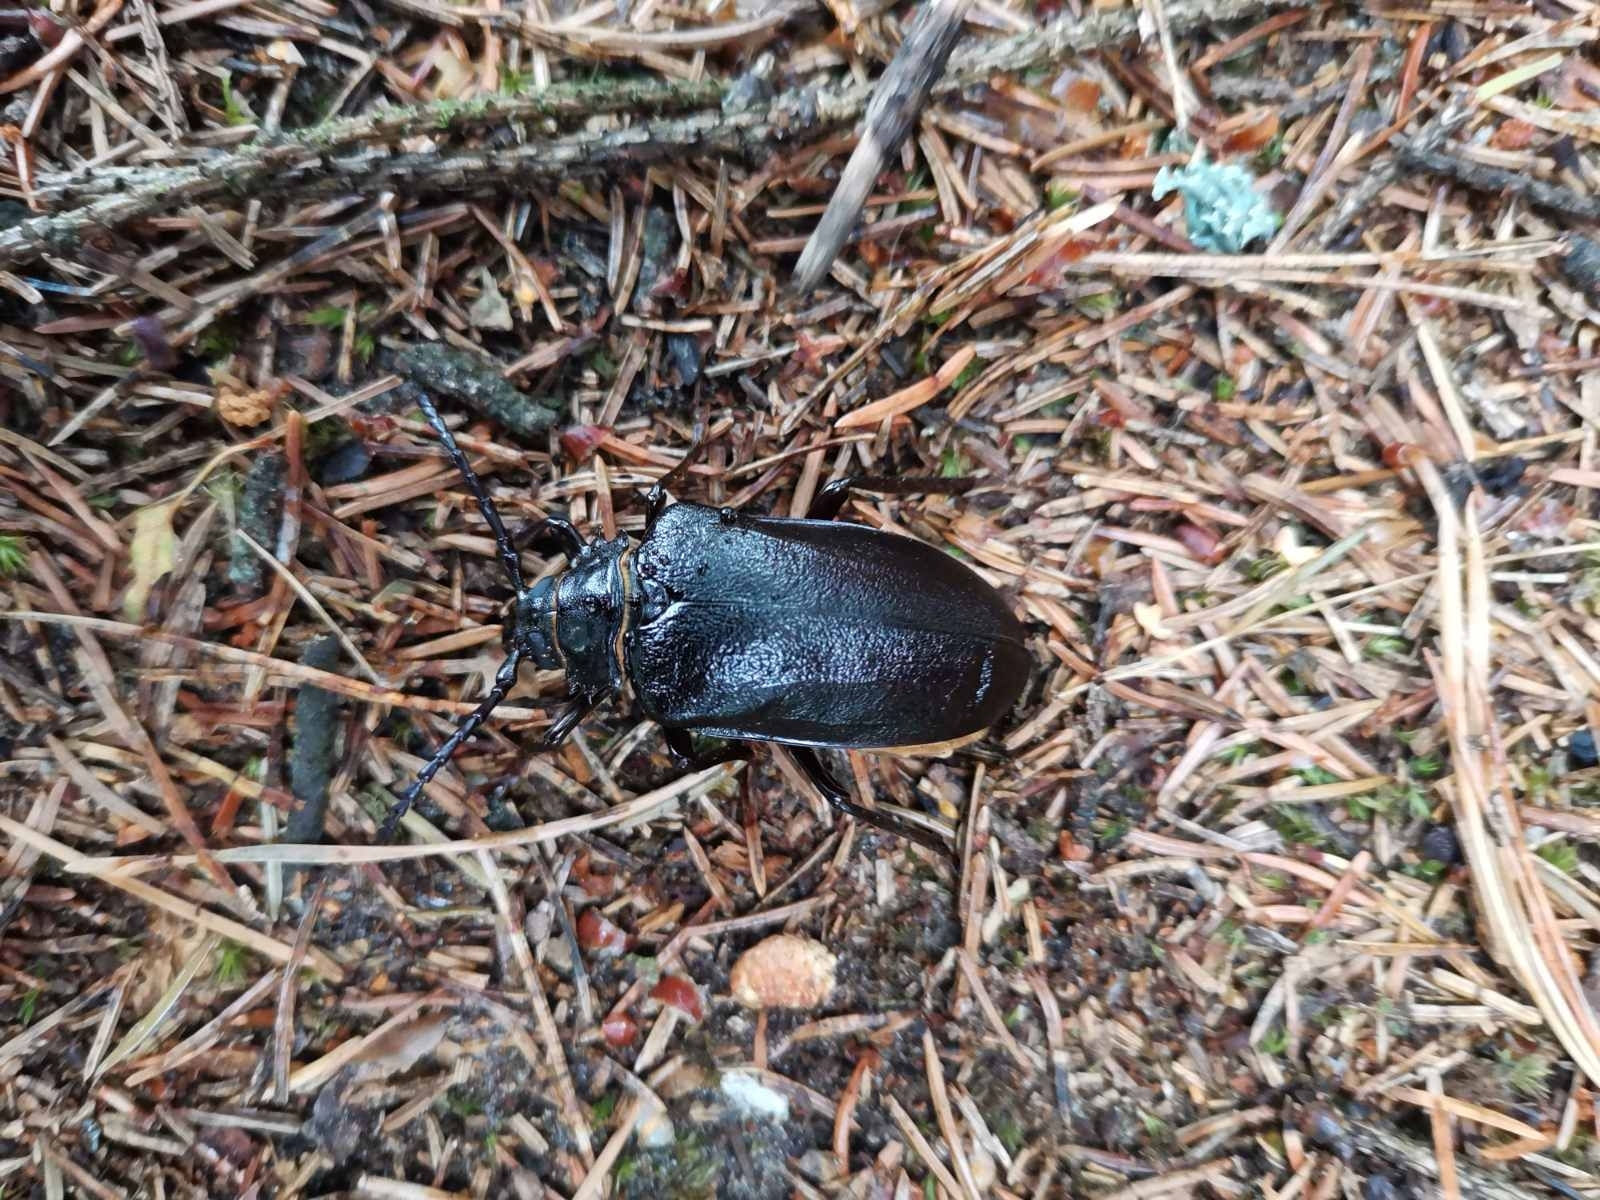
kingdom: Animalia
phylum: Arthropoda
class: Insecta
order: Coleoptera
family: Cerambycidae
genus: Prionus
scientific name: Prionus coriarius
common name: Tanner beetle
